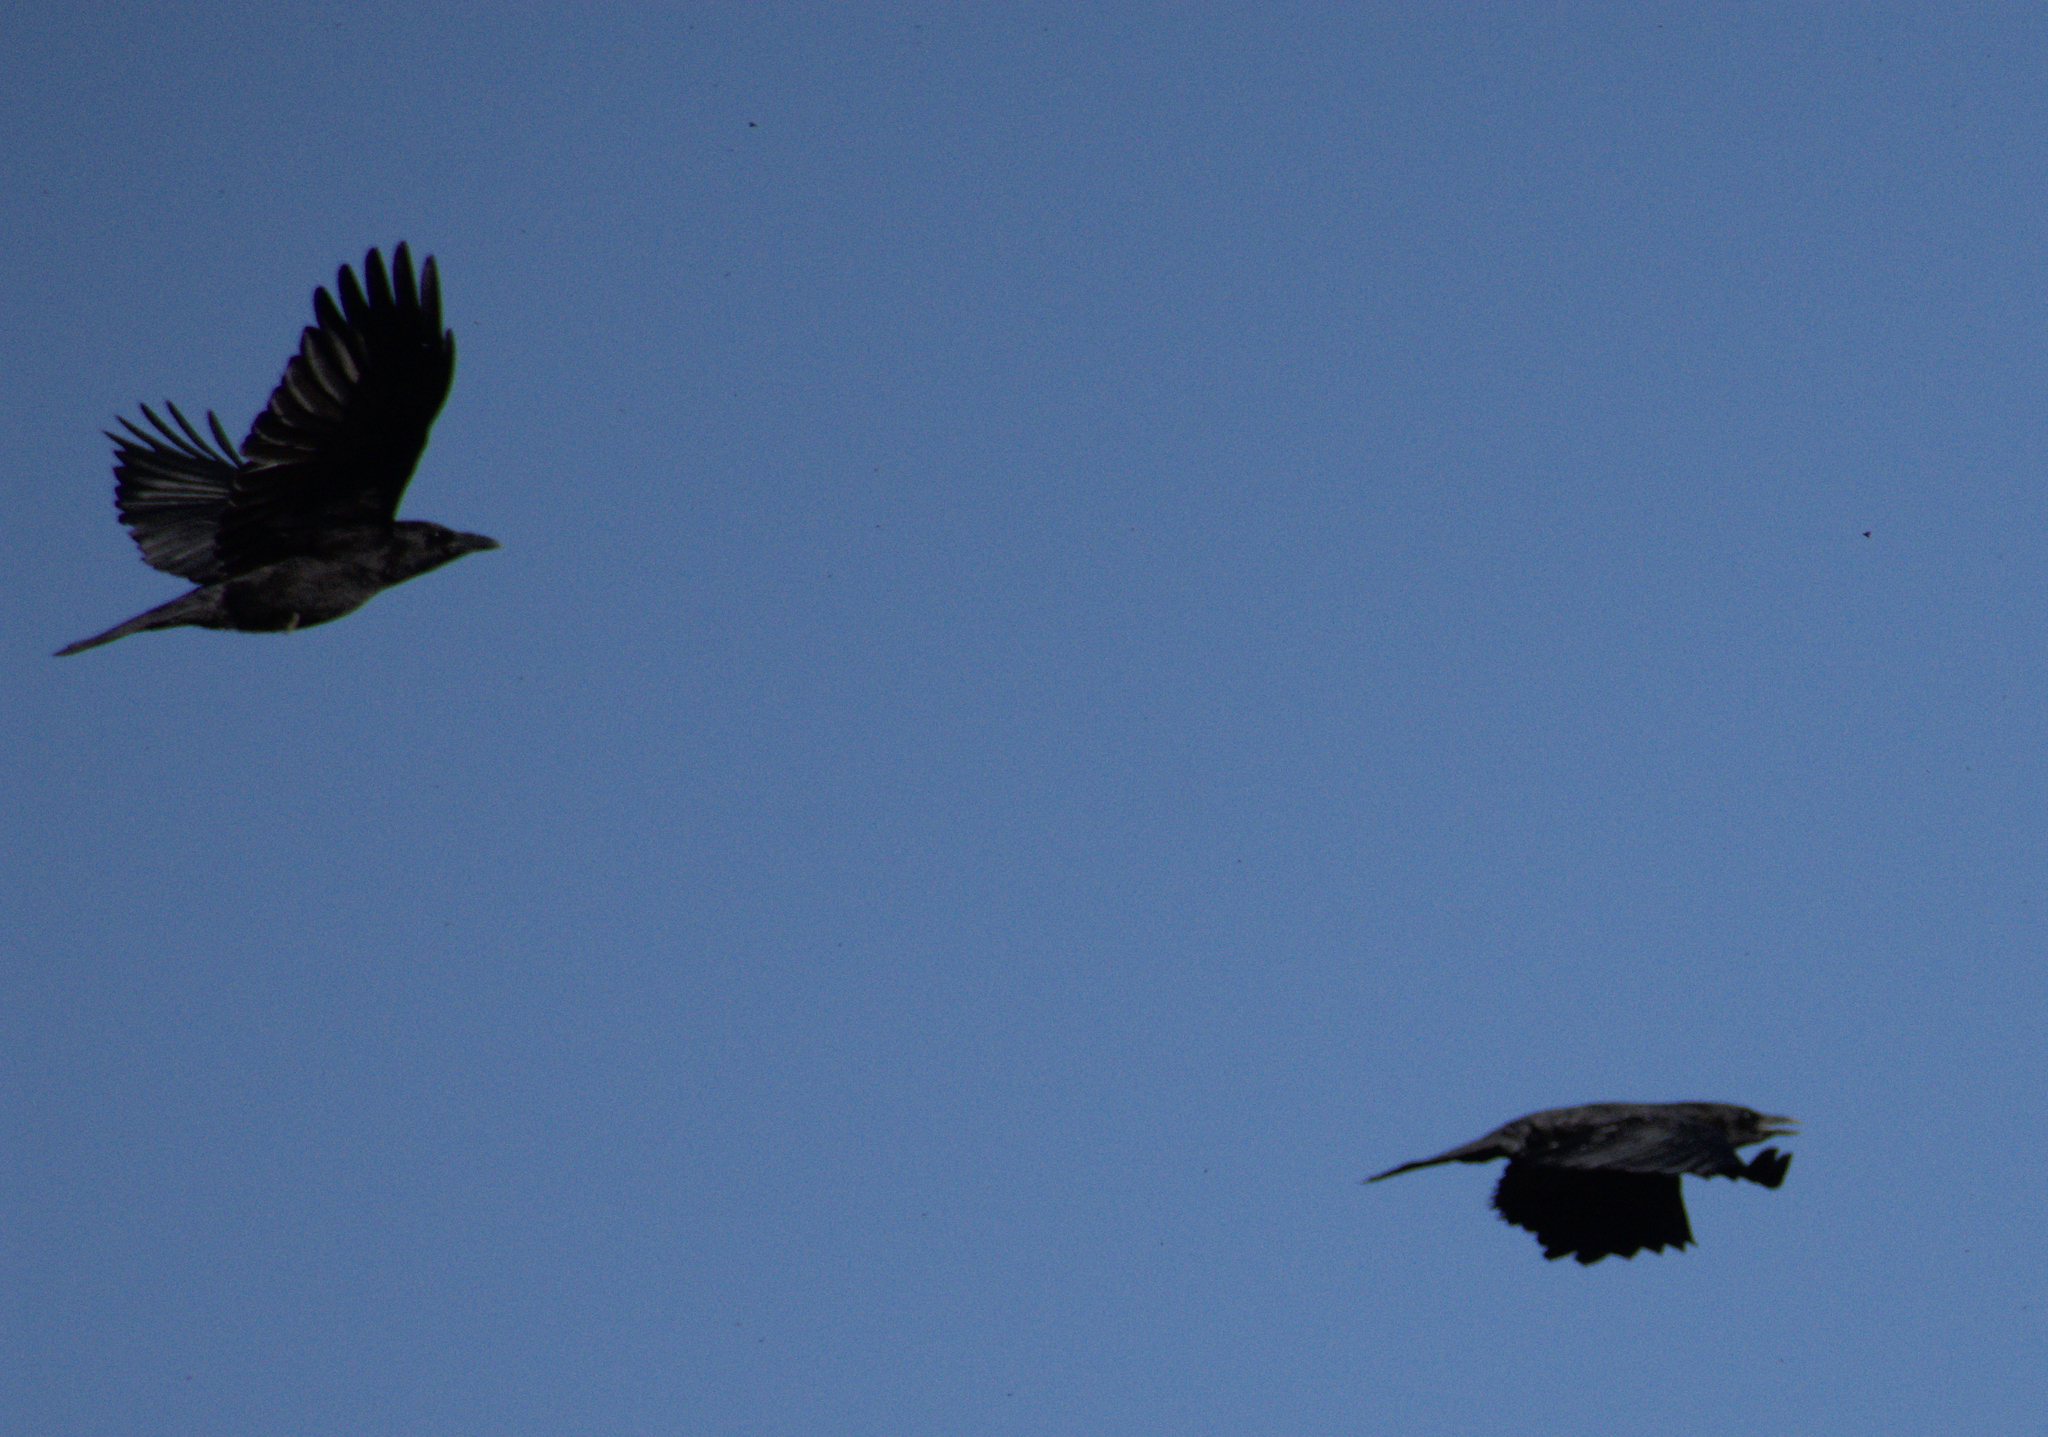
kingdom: Animalia
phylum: Chordata
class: Aves
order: Passeriformes
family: Corvidae
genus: Corvus
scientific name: Corvus brachyrhynchos
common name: American crow
